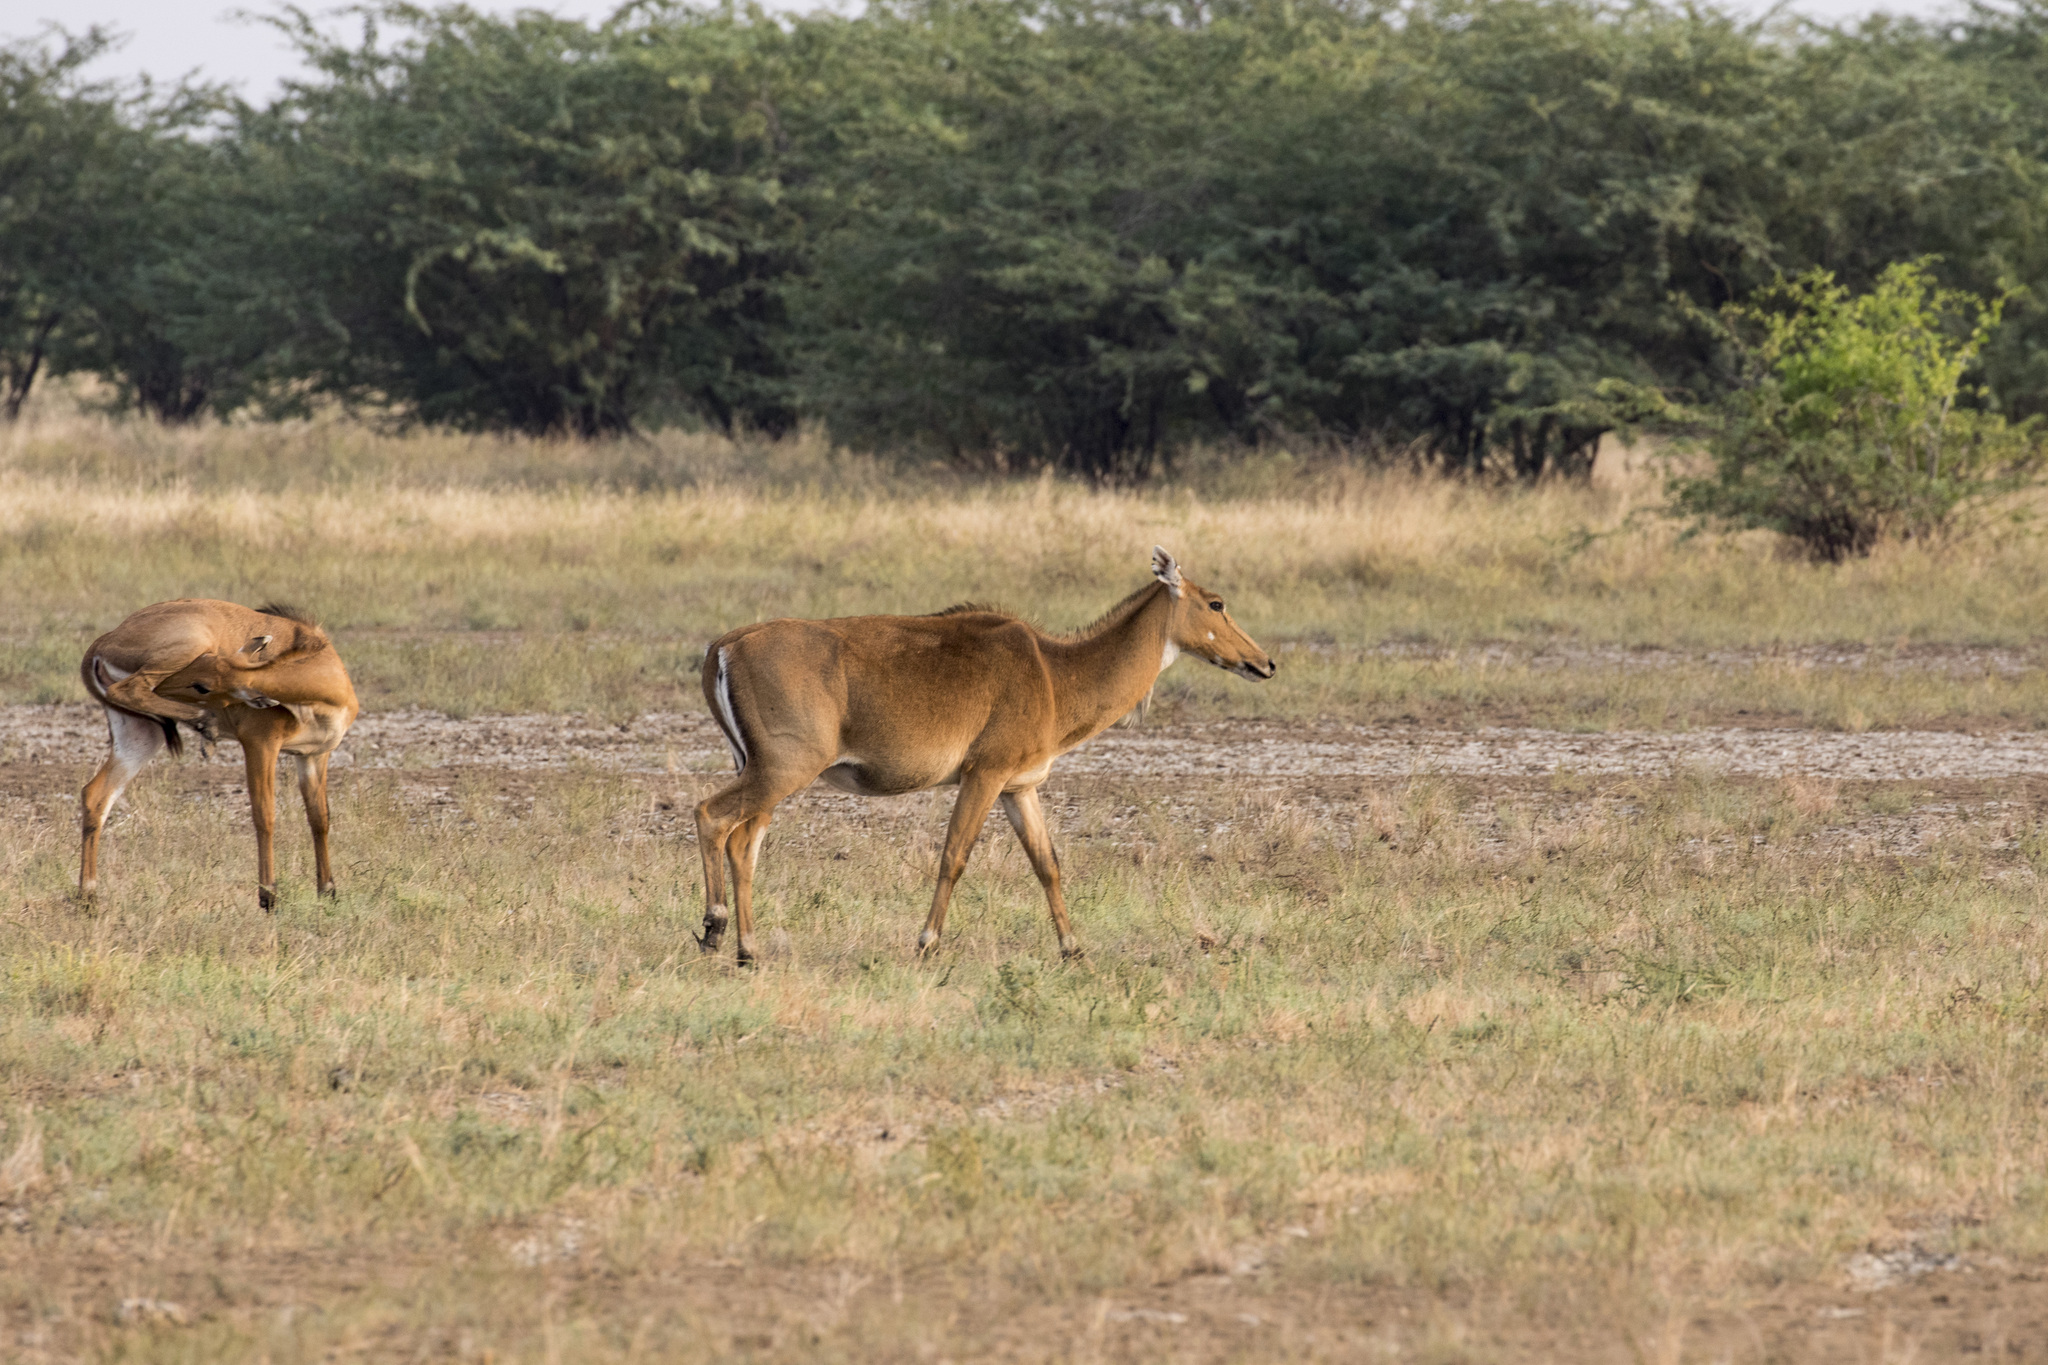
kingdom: Animalia
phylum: Chordata
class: Mammalia
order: Artiodactyla
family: Bovidae
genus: Boselaphus
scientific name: Boselaphus tragocamelus
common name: Nilgai
